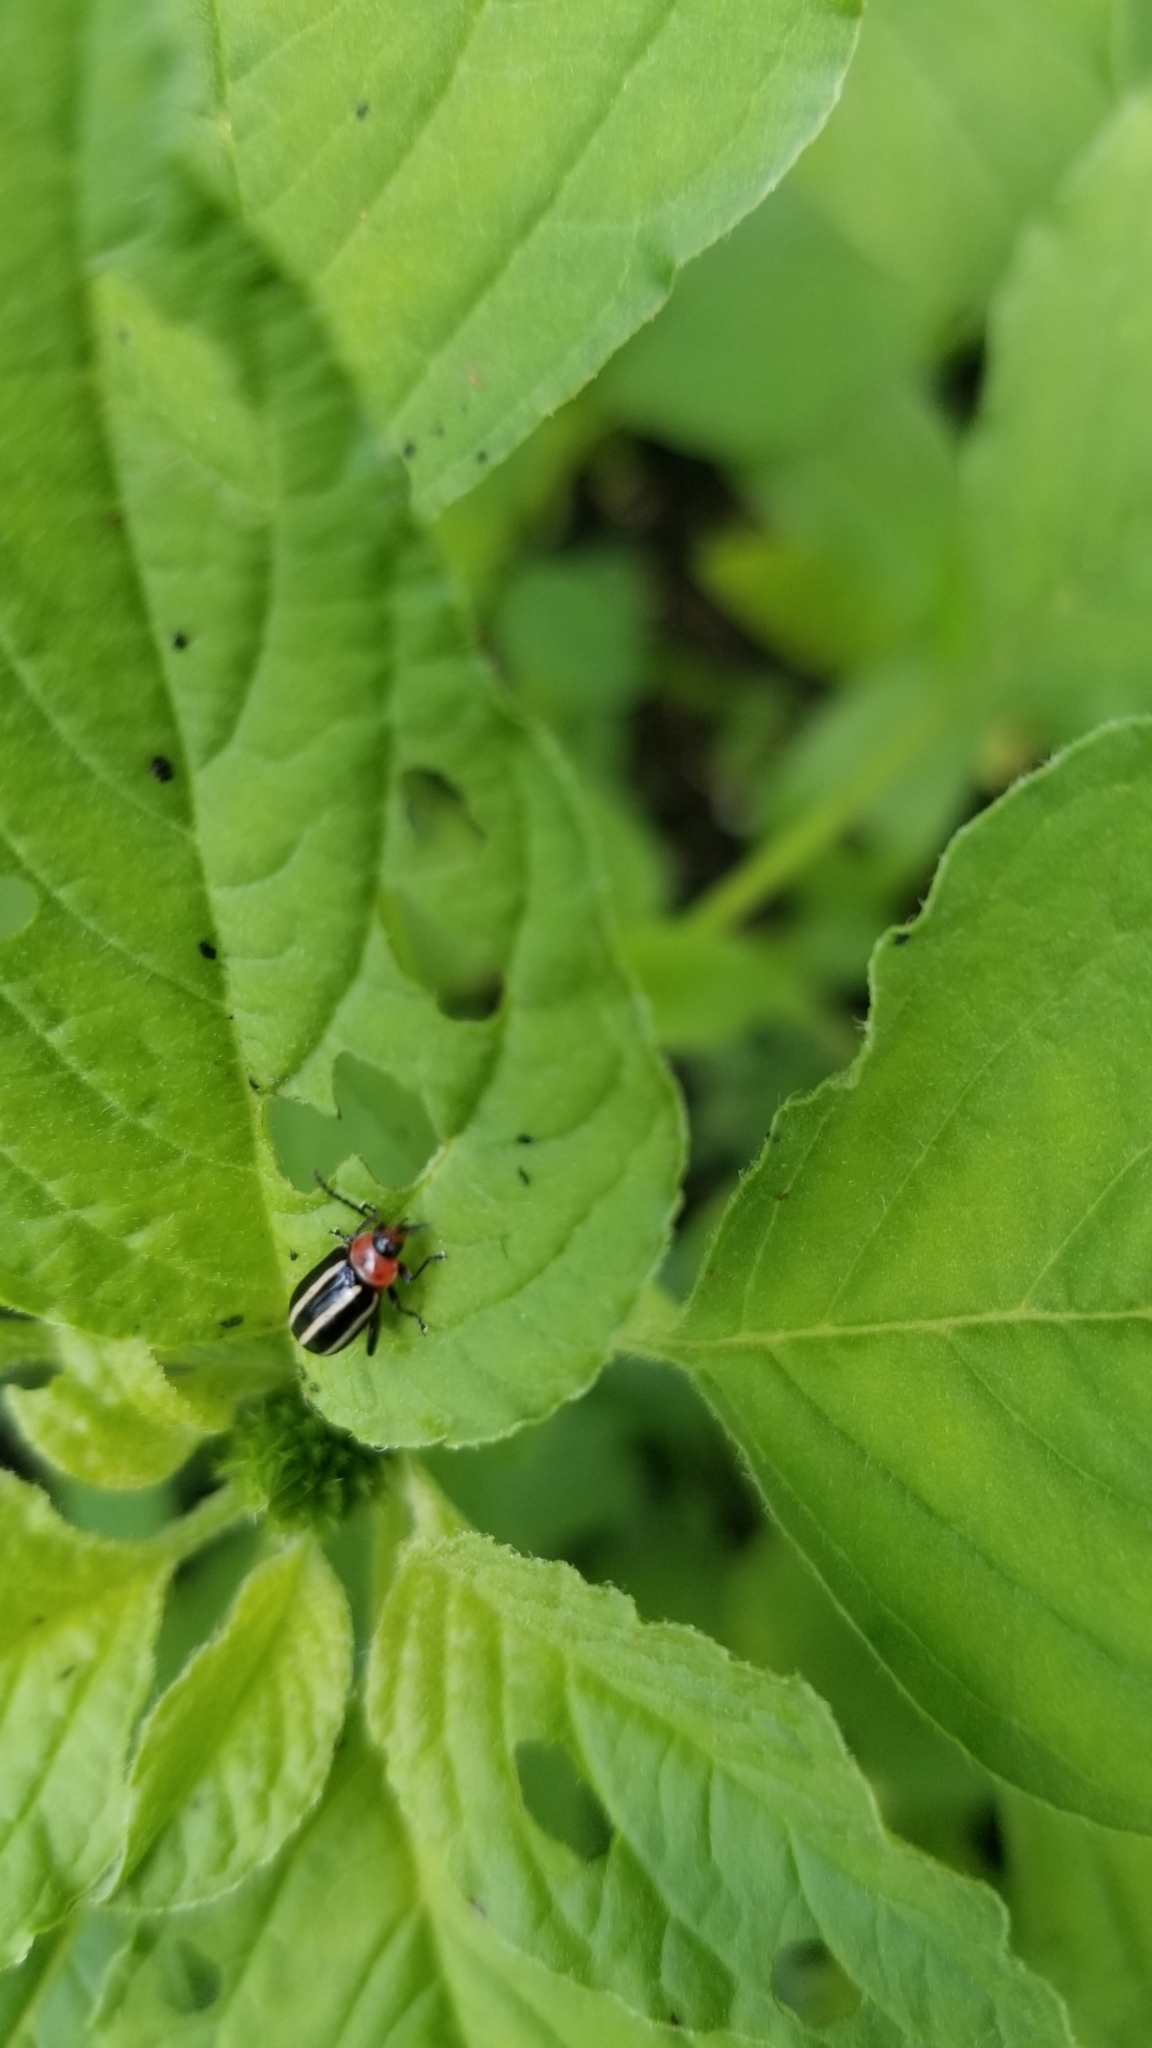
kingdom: Animalia
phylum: Arthropoda
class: Insecta
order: Coleoptera
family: Chrysomelidae
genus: Disonycha
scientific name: Disonycha glabrata
